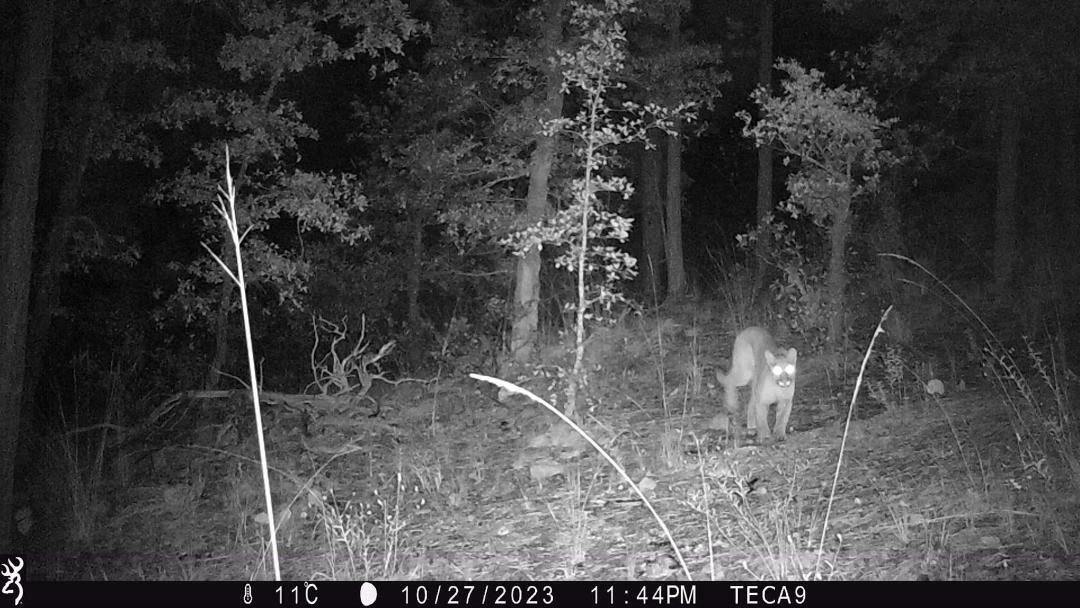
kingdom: Animalia
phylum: Chordata
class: Mammalia
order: Carnivora
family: Felidae
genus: Puma
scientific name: Puma concolor
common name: Puma
